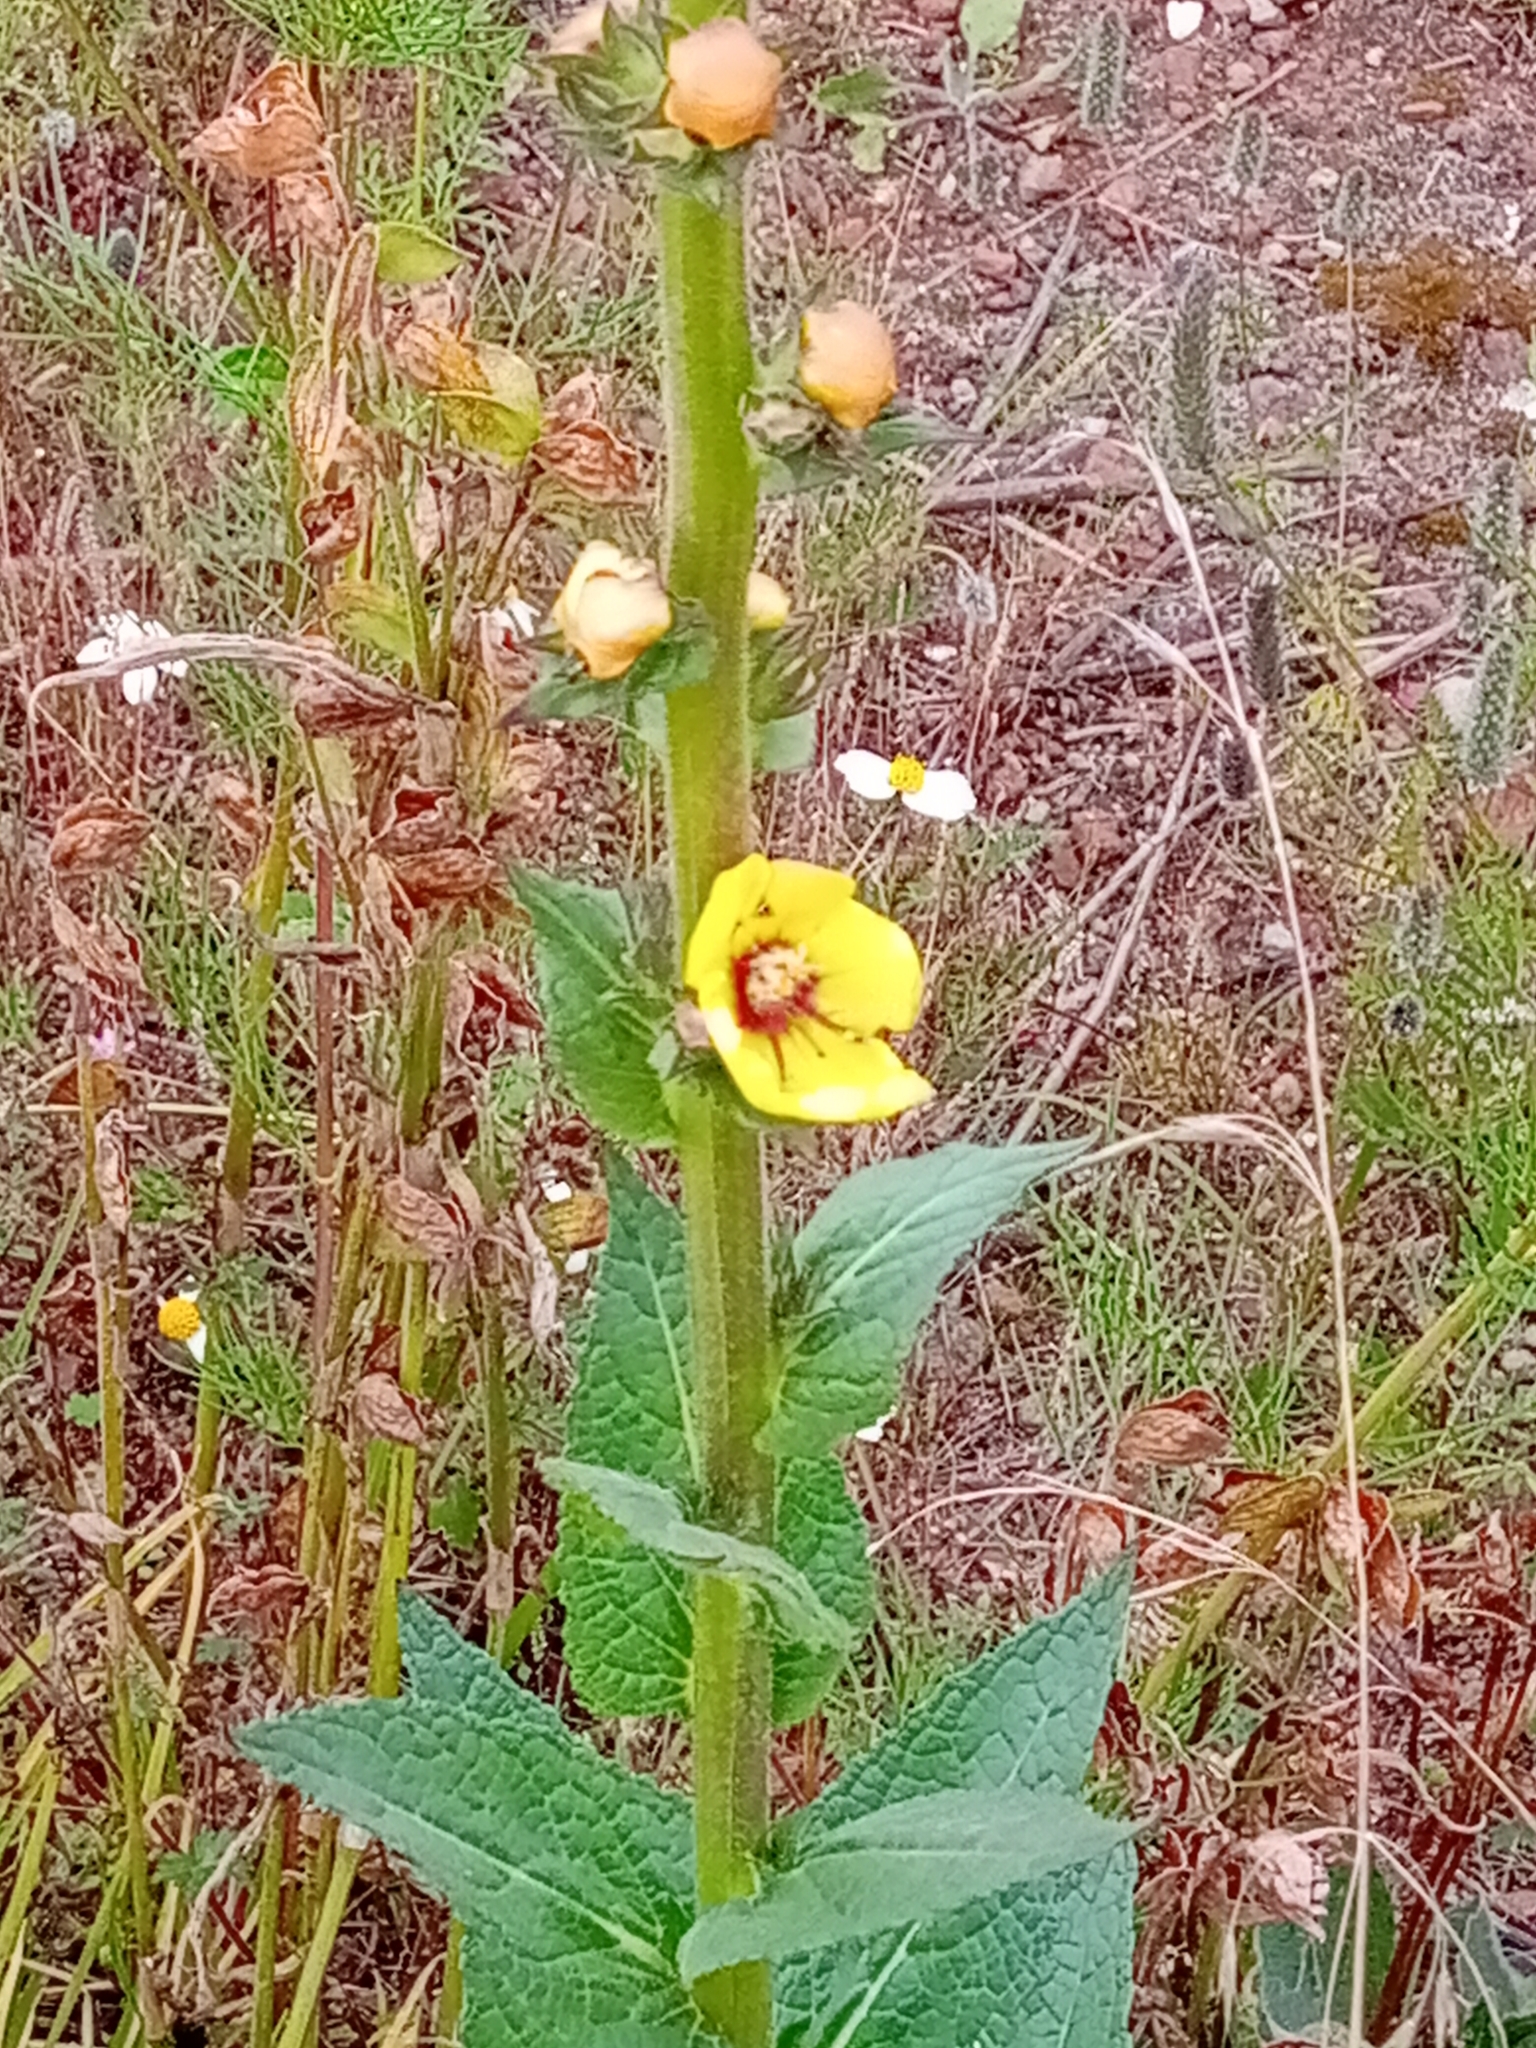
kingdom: Plantae
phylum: Tracheophyta
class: Magnoliopsida
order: Lamiales
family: Scrophulariaceae
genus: Verbascum
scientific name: Verbascum virgatum
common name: Twiggy mullein
